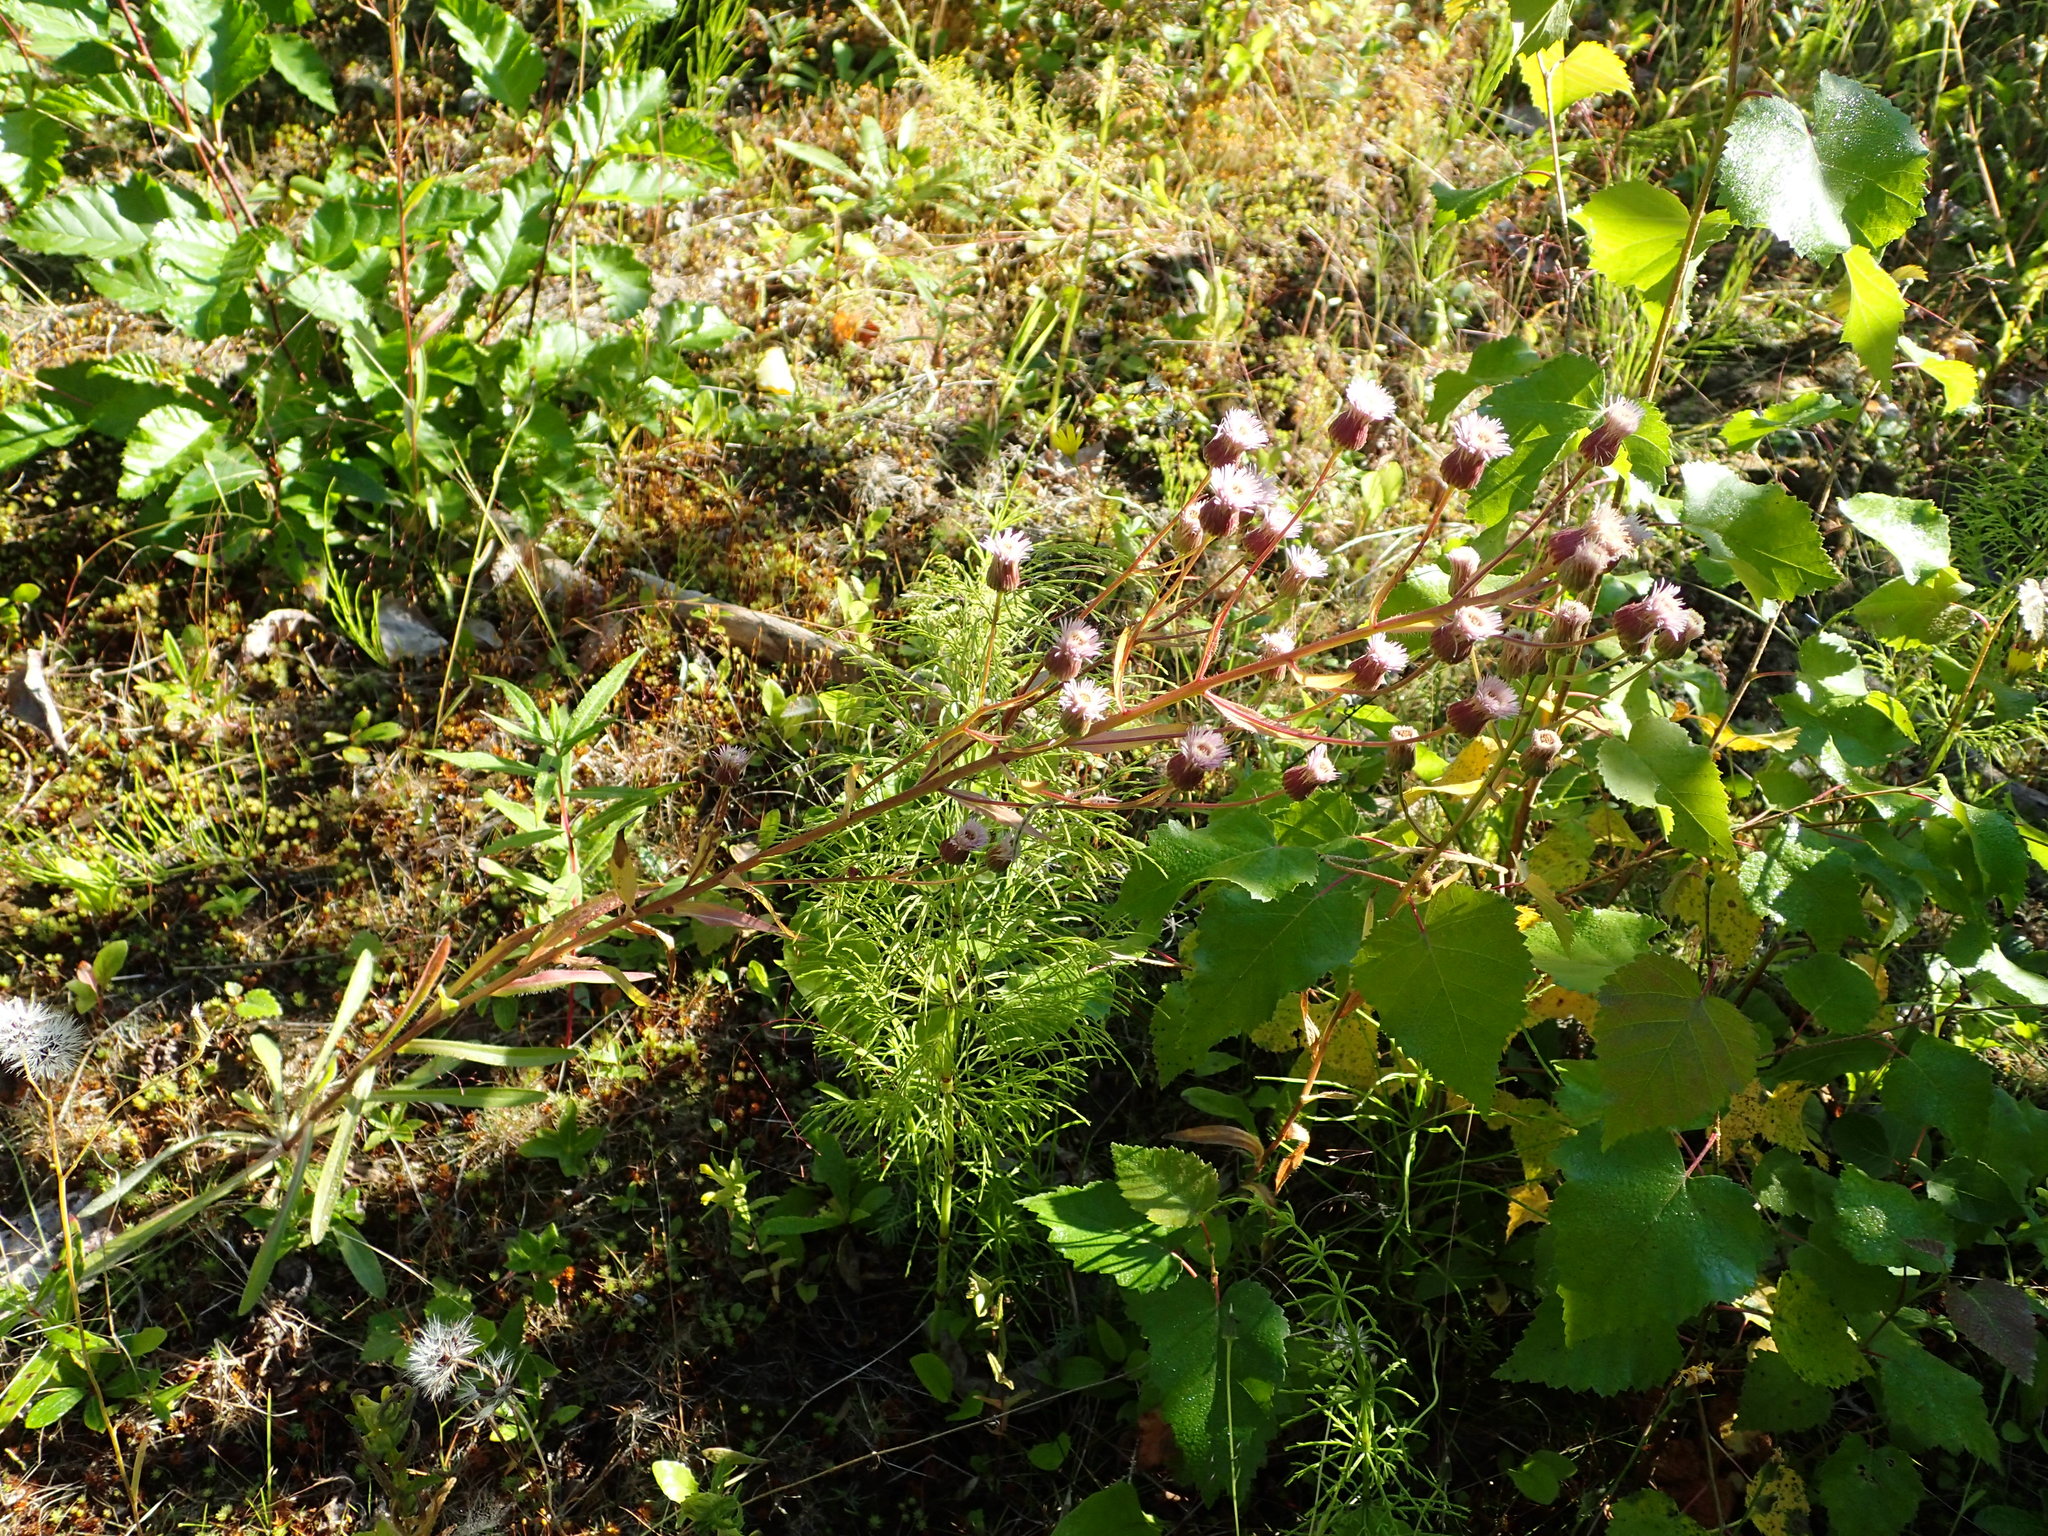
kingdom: Plantae
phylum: Tracheophyta
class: Magnoliopsida
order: Asterales
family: Asteraceae
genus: Erigeron
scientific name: Erigeron acris
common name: Blue fleabane
